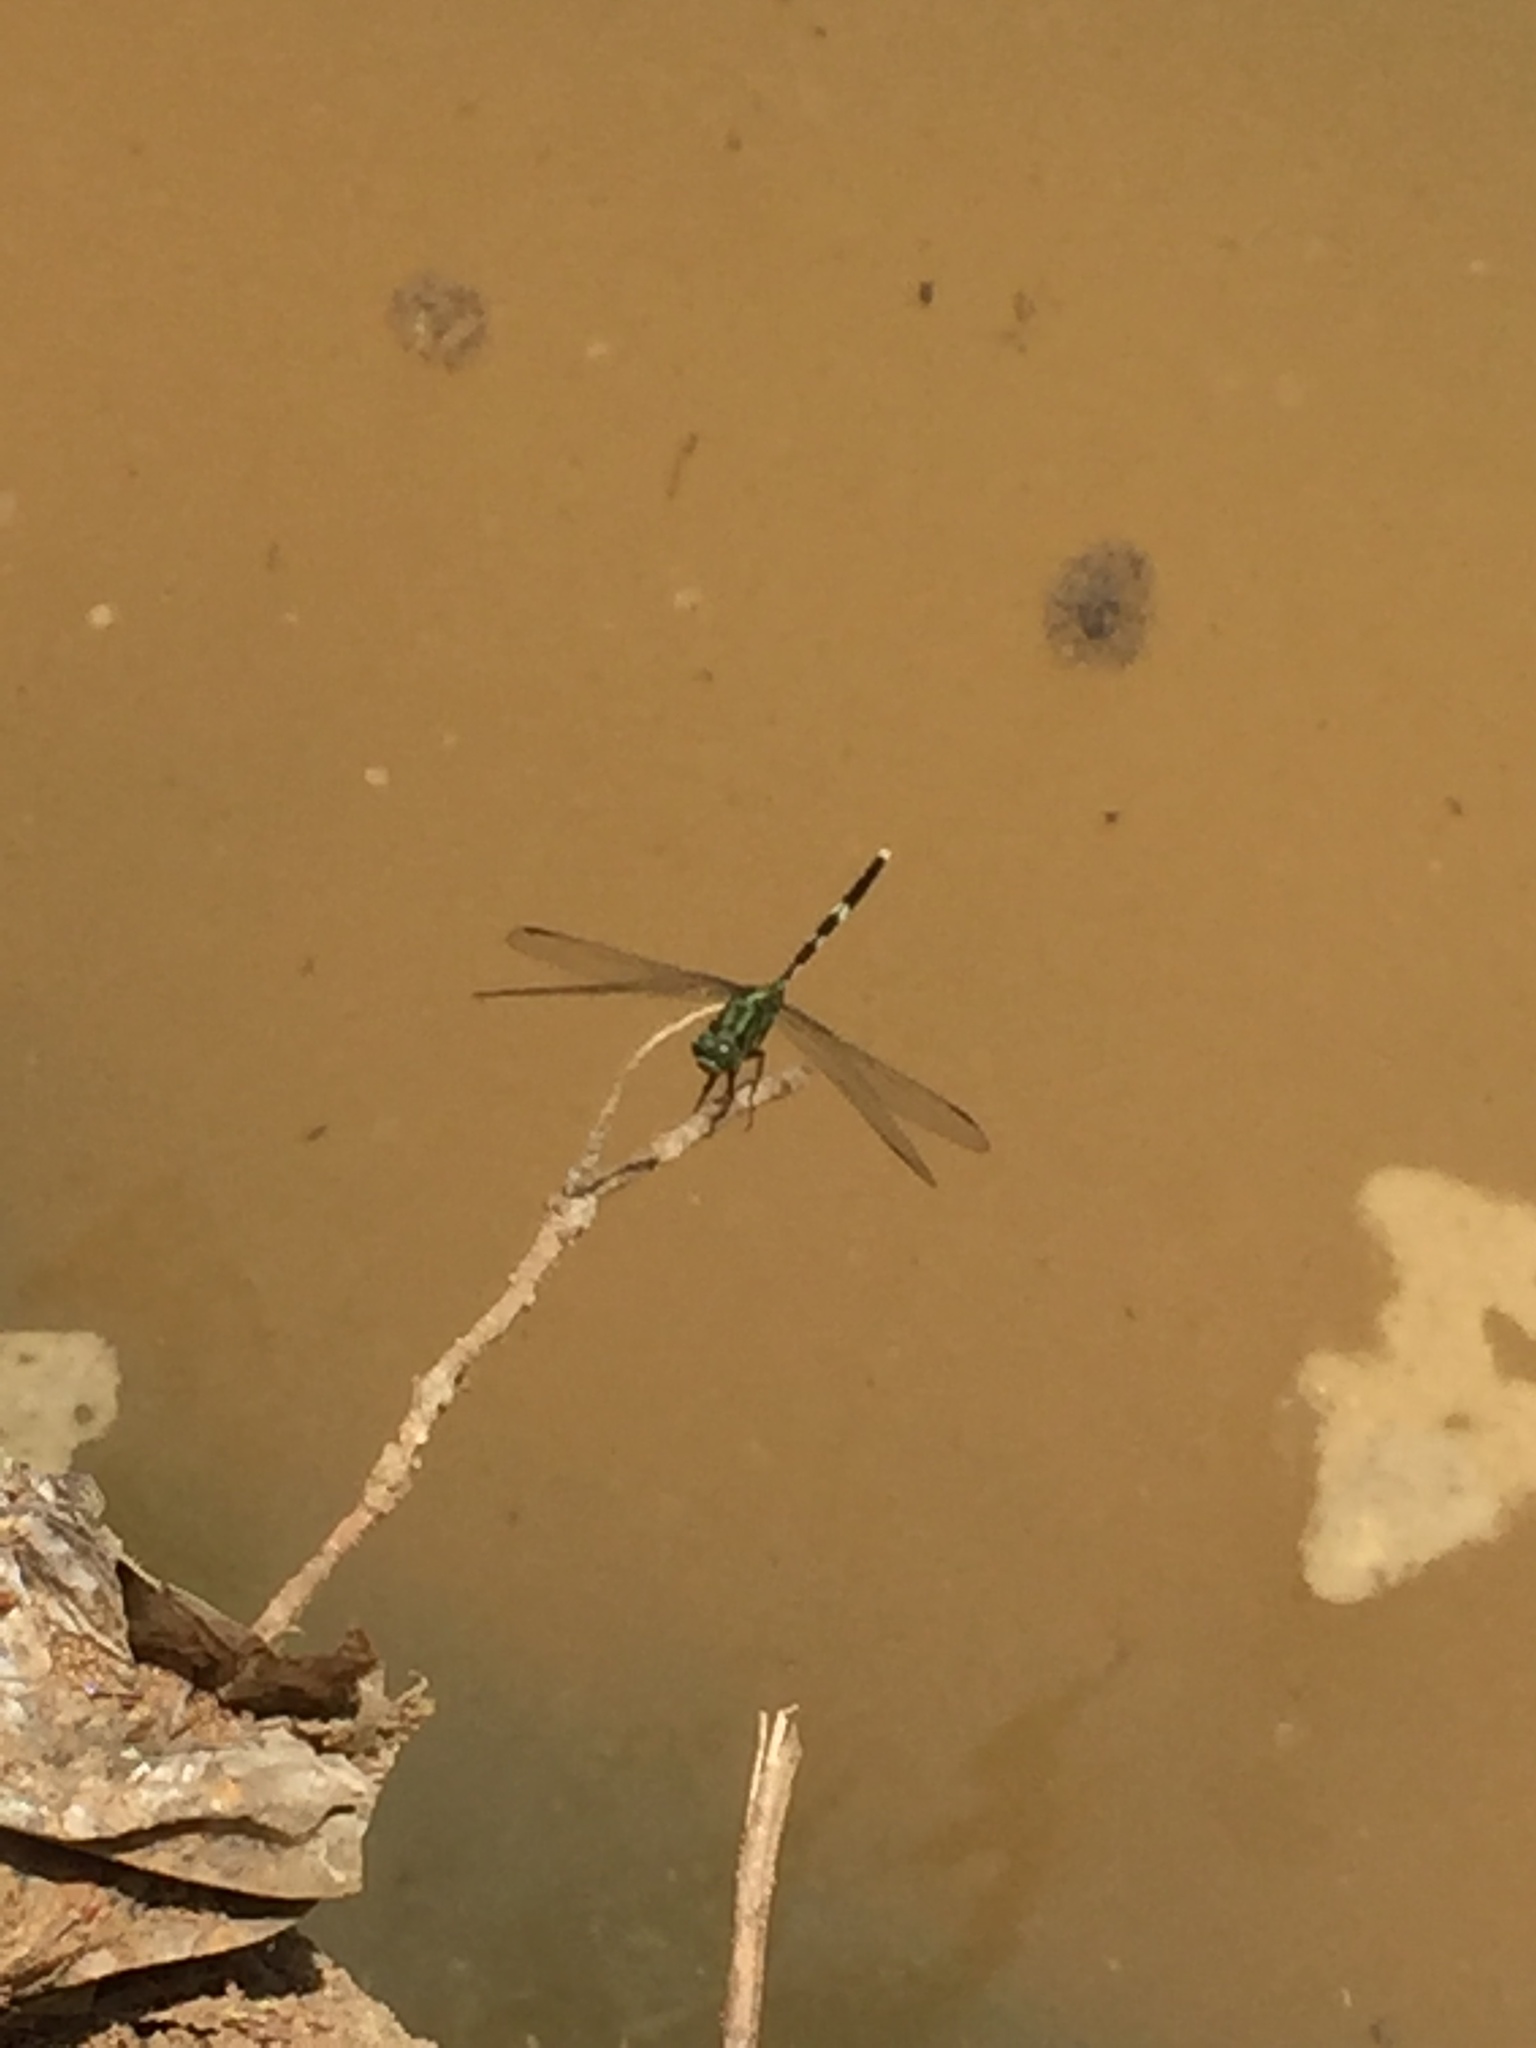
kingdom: Animalia
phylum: Arthropoda
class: Insecta
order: Odonata
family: Libellulidae
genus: Orthetrum
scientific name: Orthetrum sabina
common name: Slender skimmer
